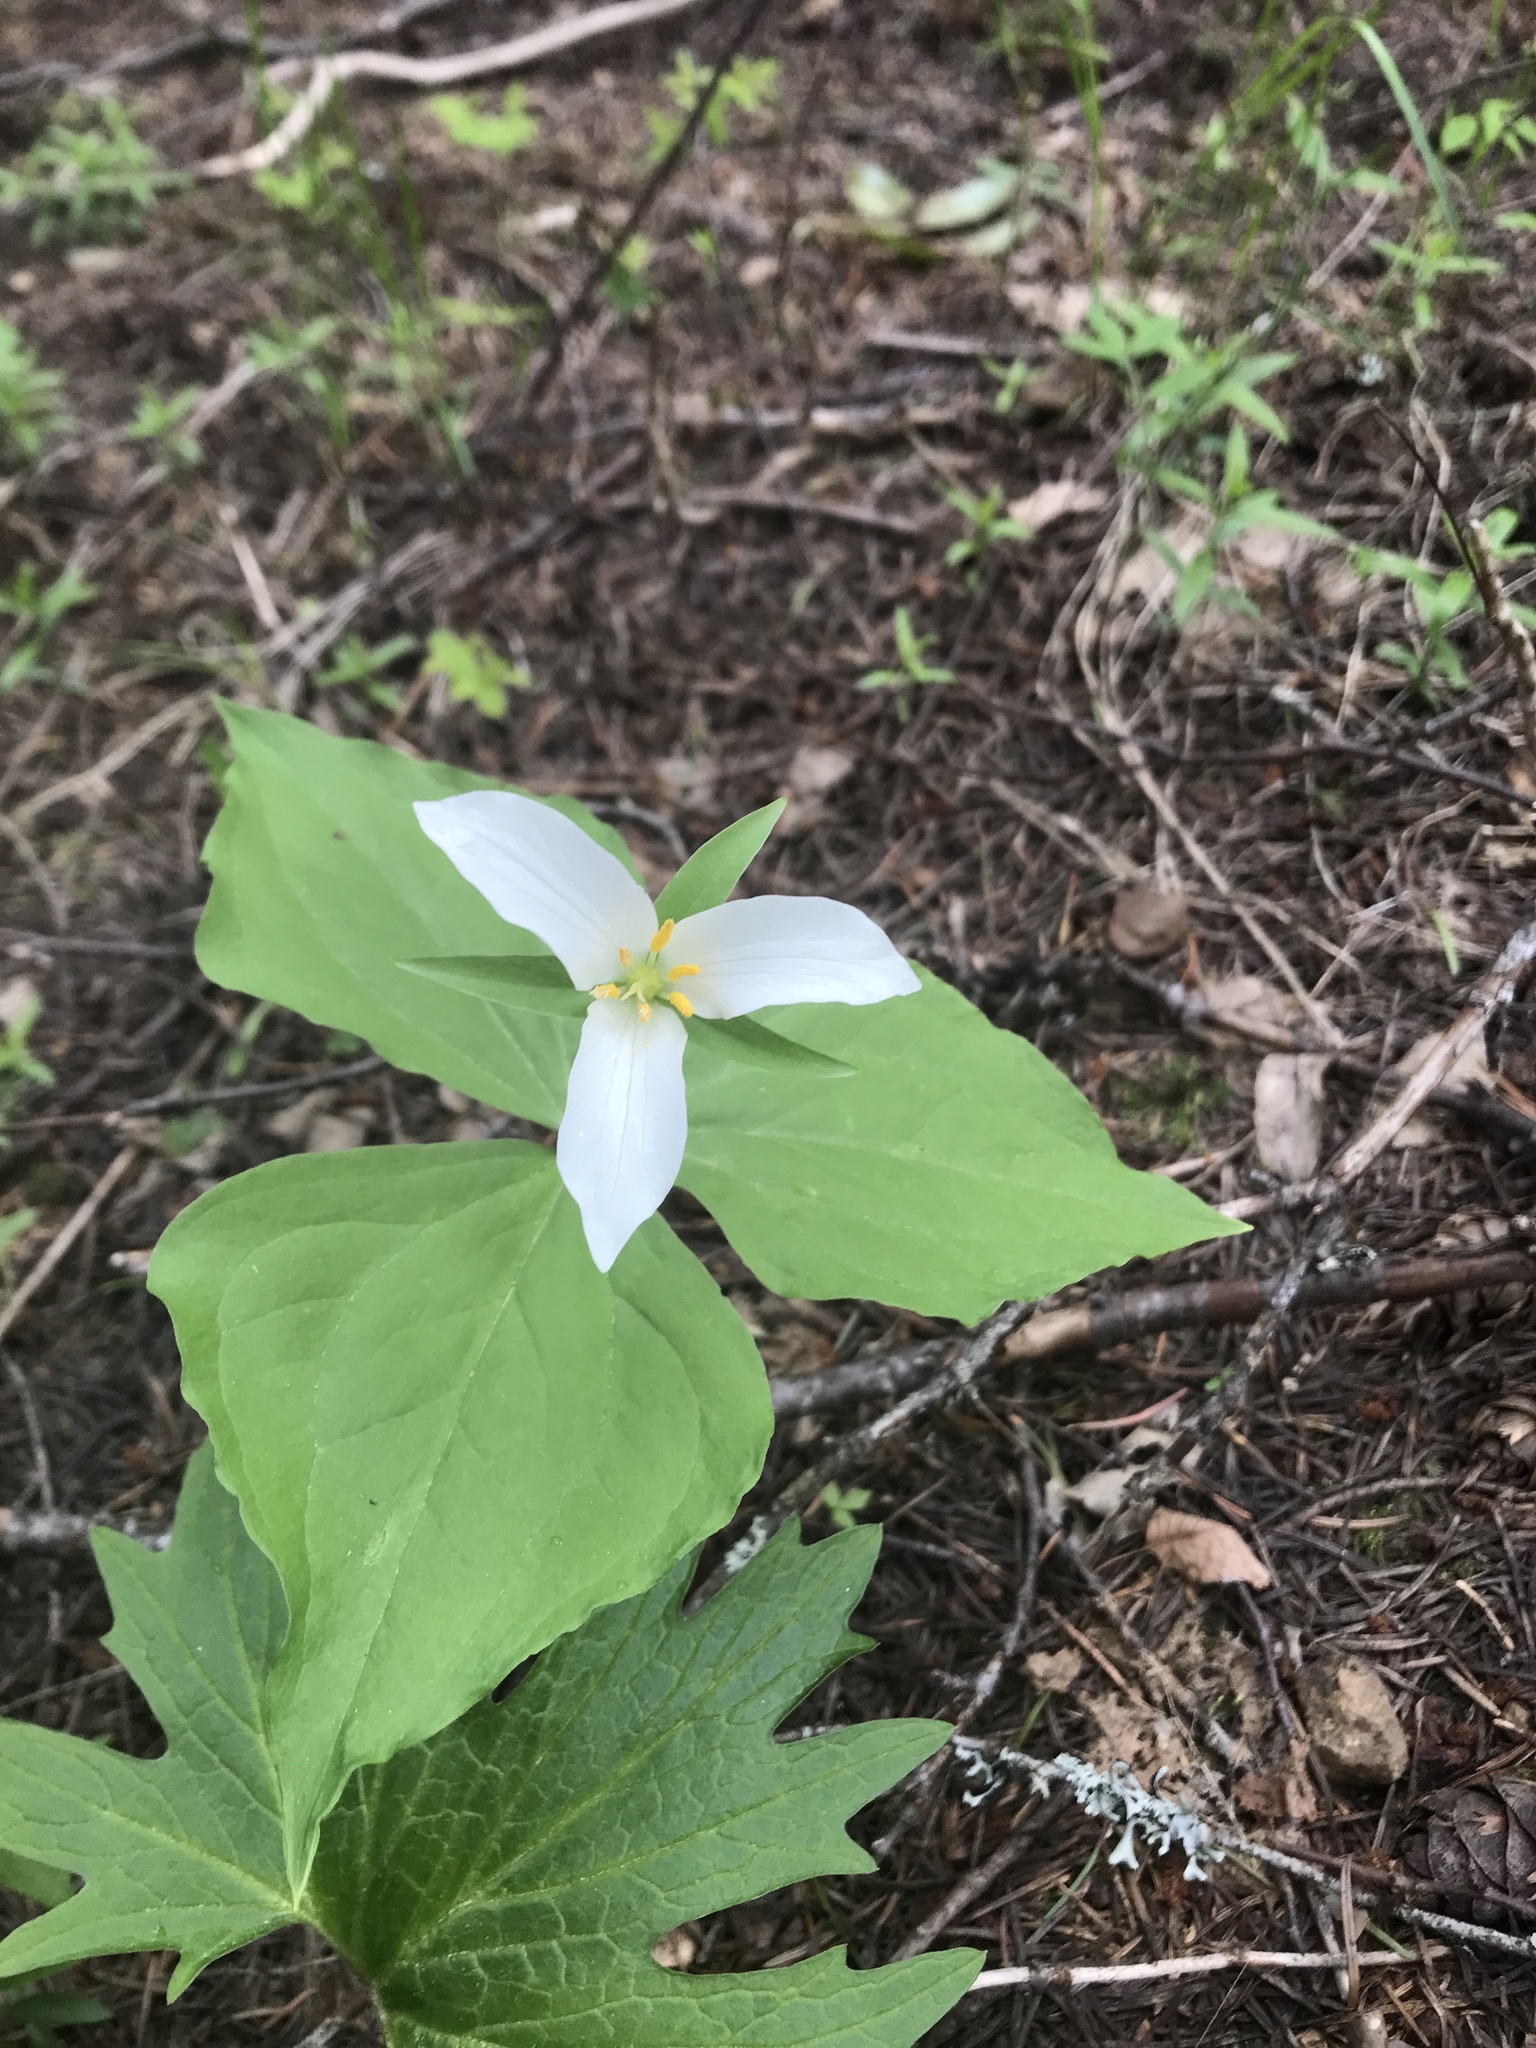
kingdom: Plantae
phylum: Tracheophyta
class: Liliopsida
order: Liliales
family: Melanthiaceae
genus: Trillium
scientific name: Trillium ovatum
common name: Pacific trillium
